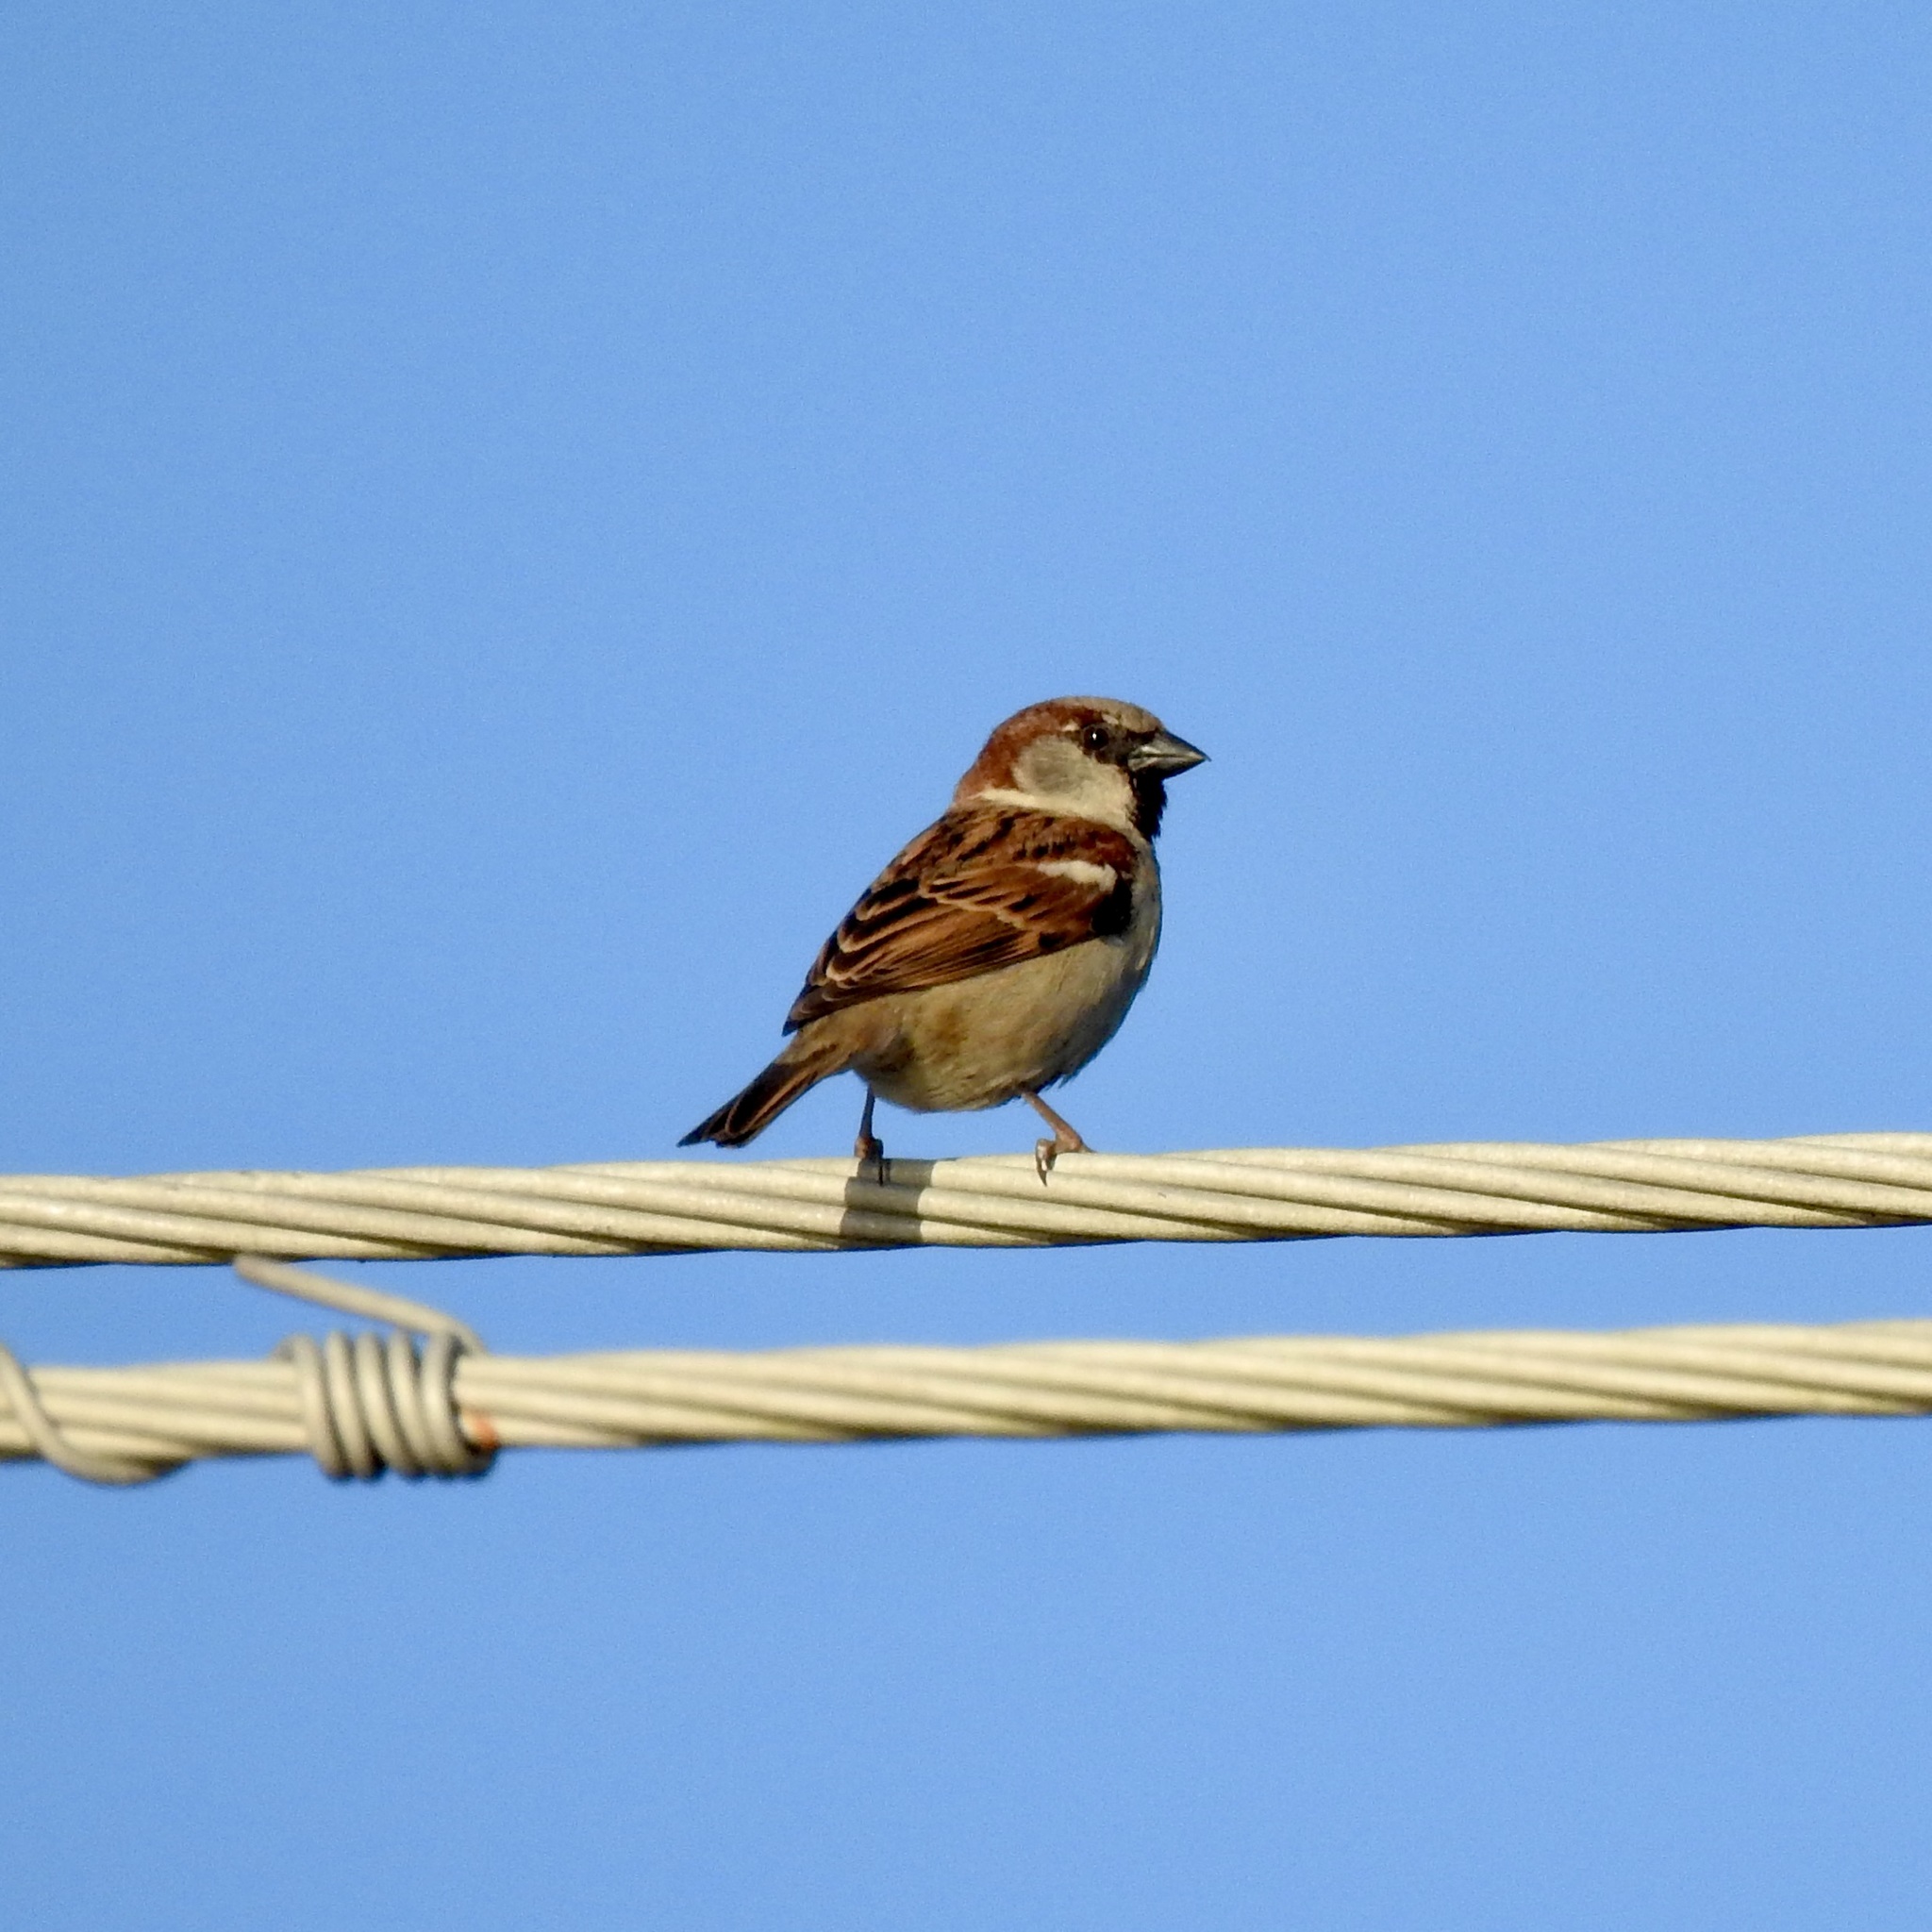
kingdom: Animalia
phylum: Chordata
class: Aves
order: Passeriformes
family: Passeridae
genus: Passer
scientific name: Passer domesticus
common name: House sparrow
